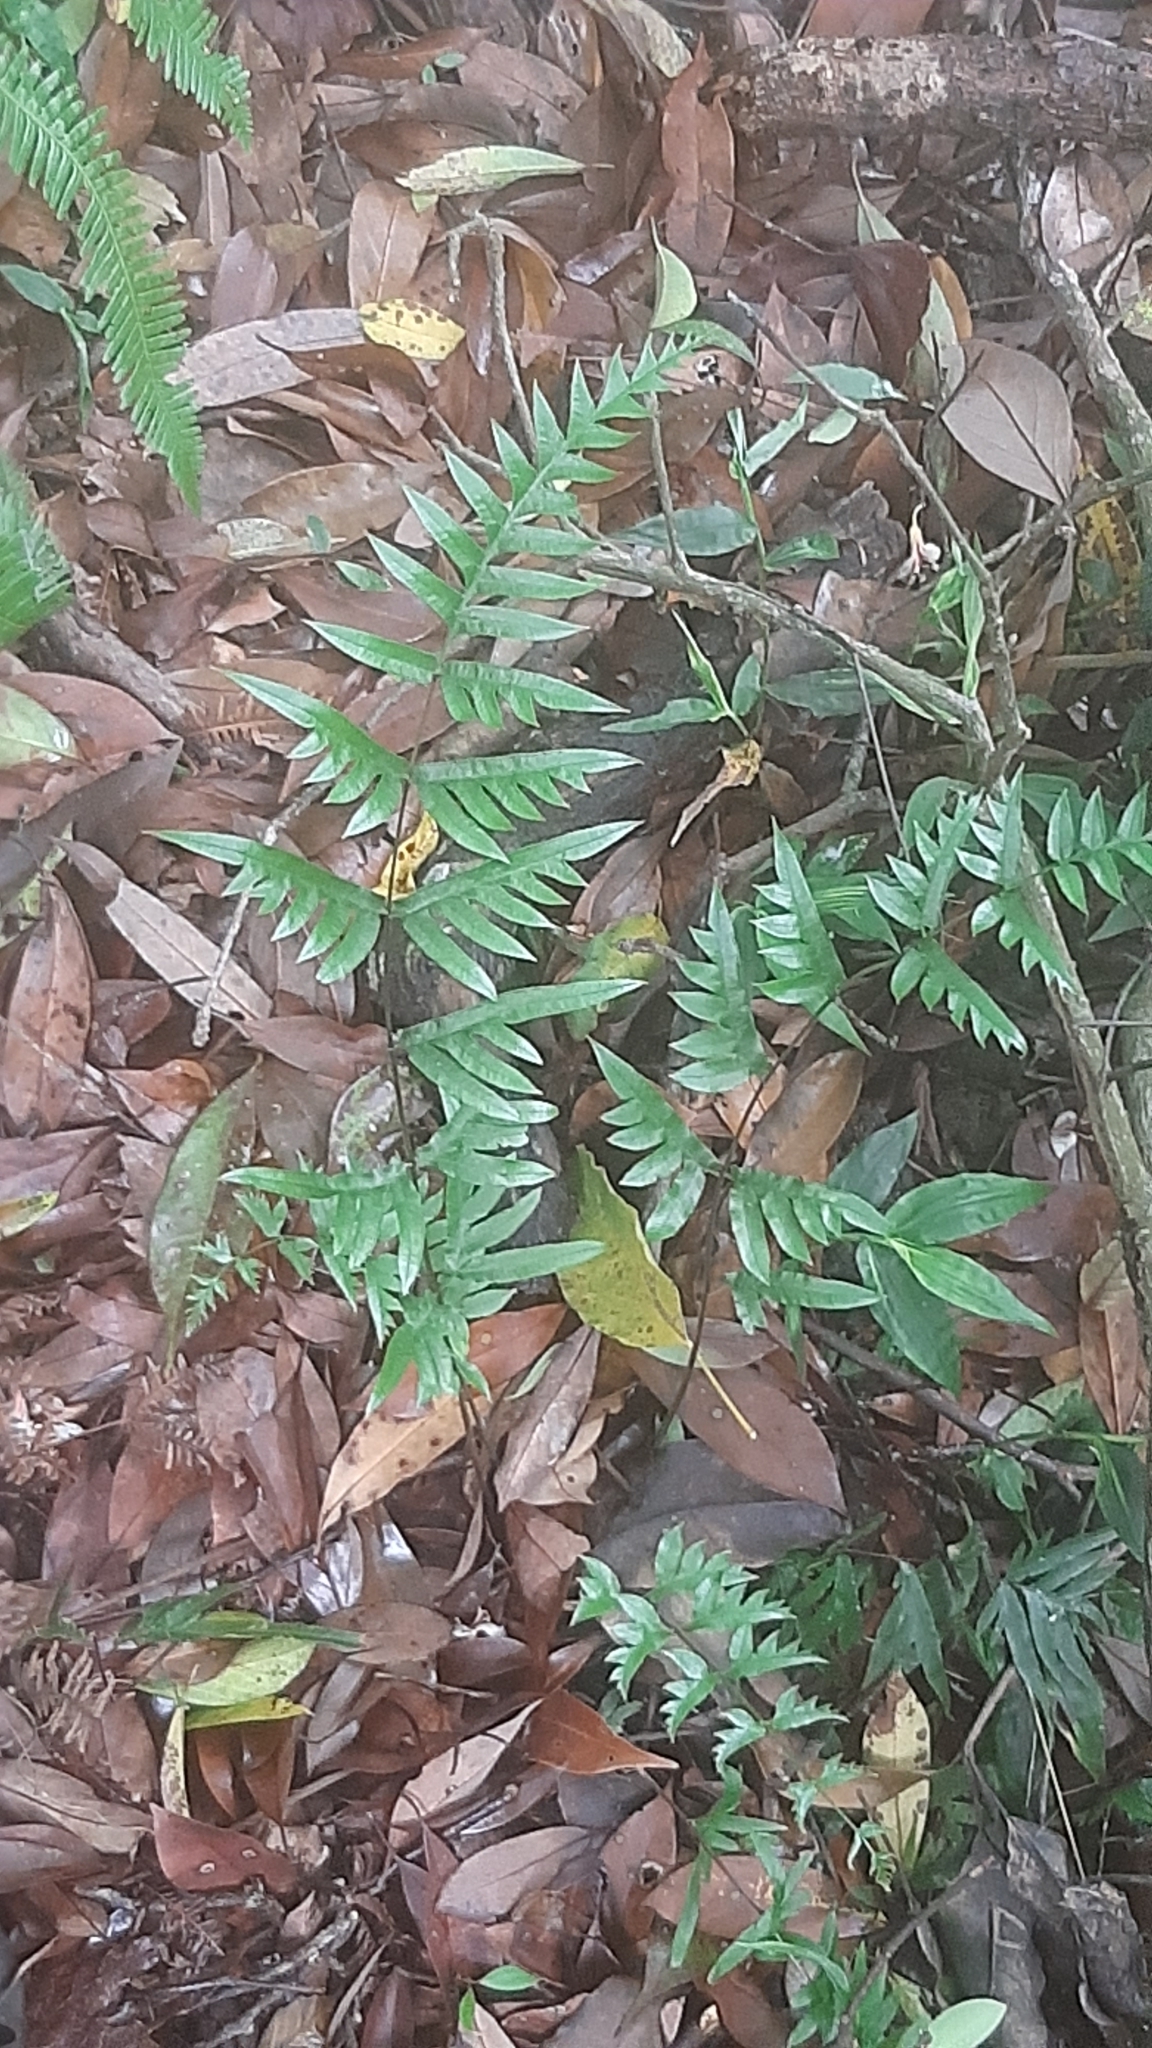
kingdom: Plantae
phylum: Tracheophyta
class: Polypodiopsida
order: Polypodiales
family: Pteridaceae
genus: Pteris
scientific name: Pteris semipinnata
